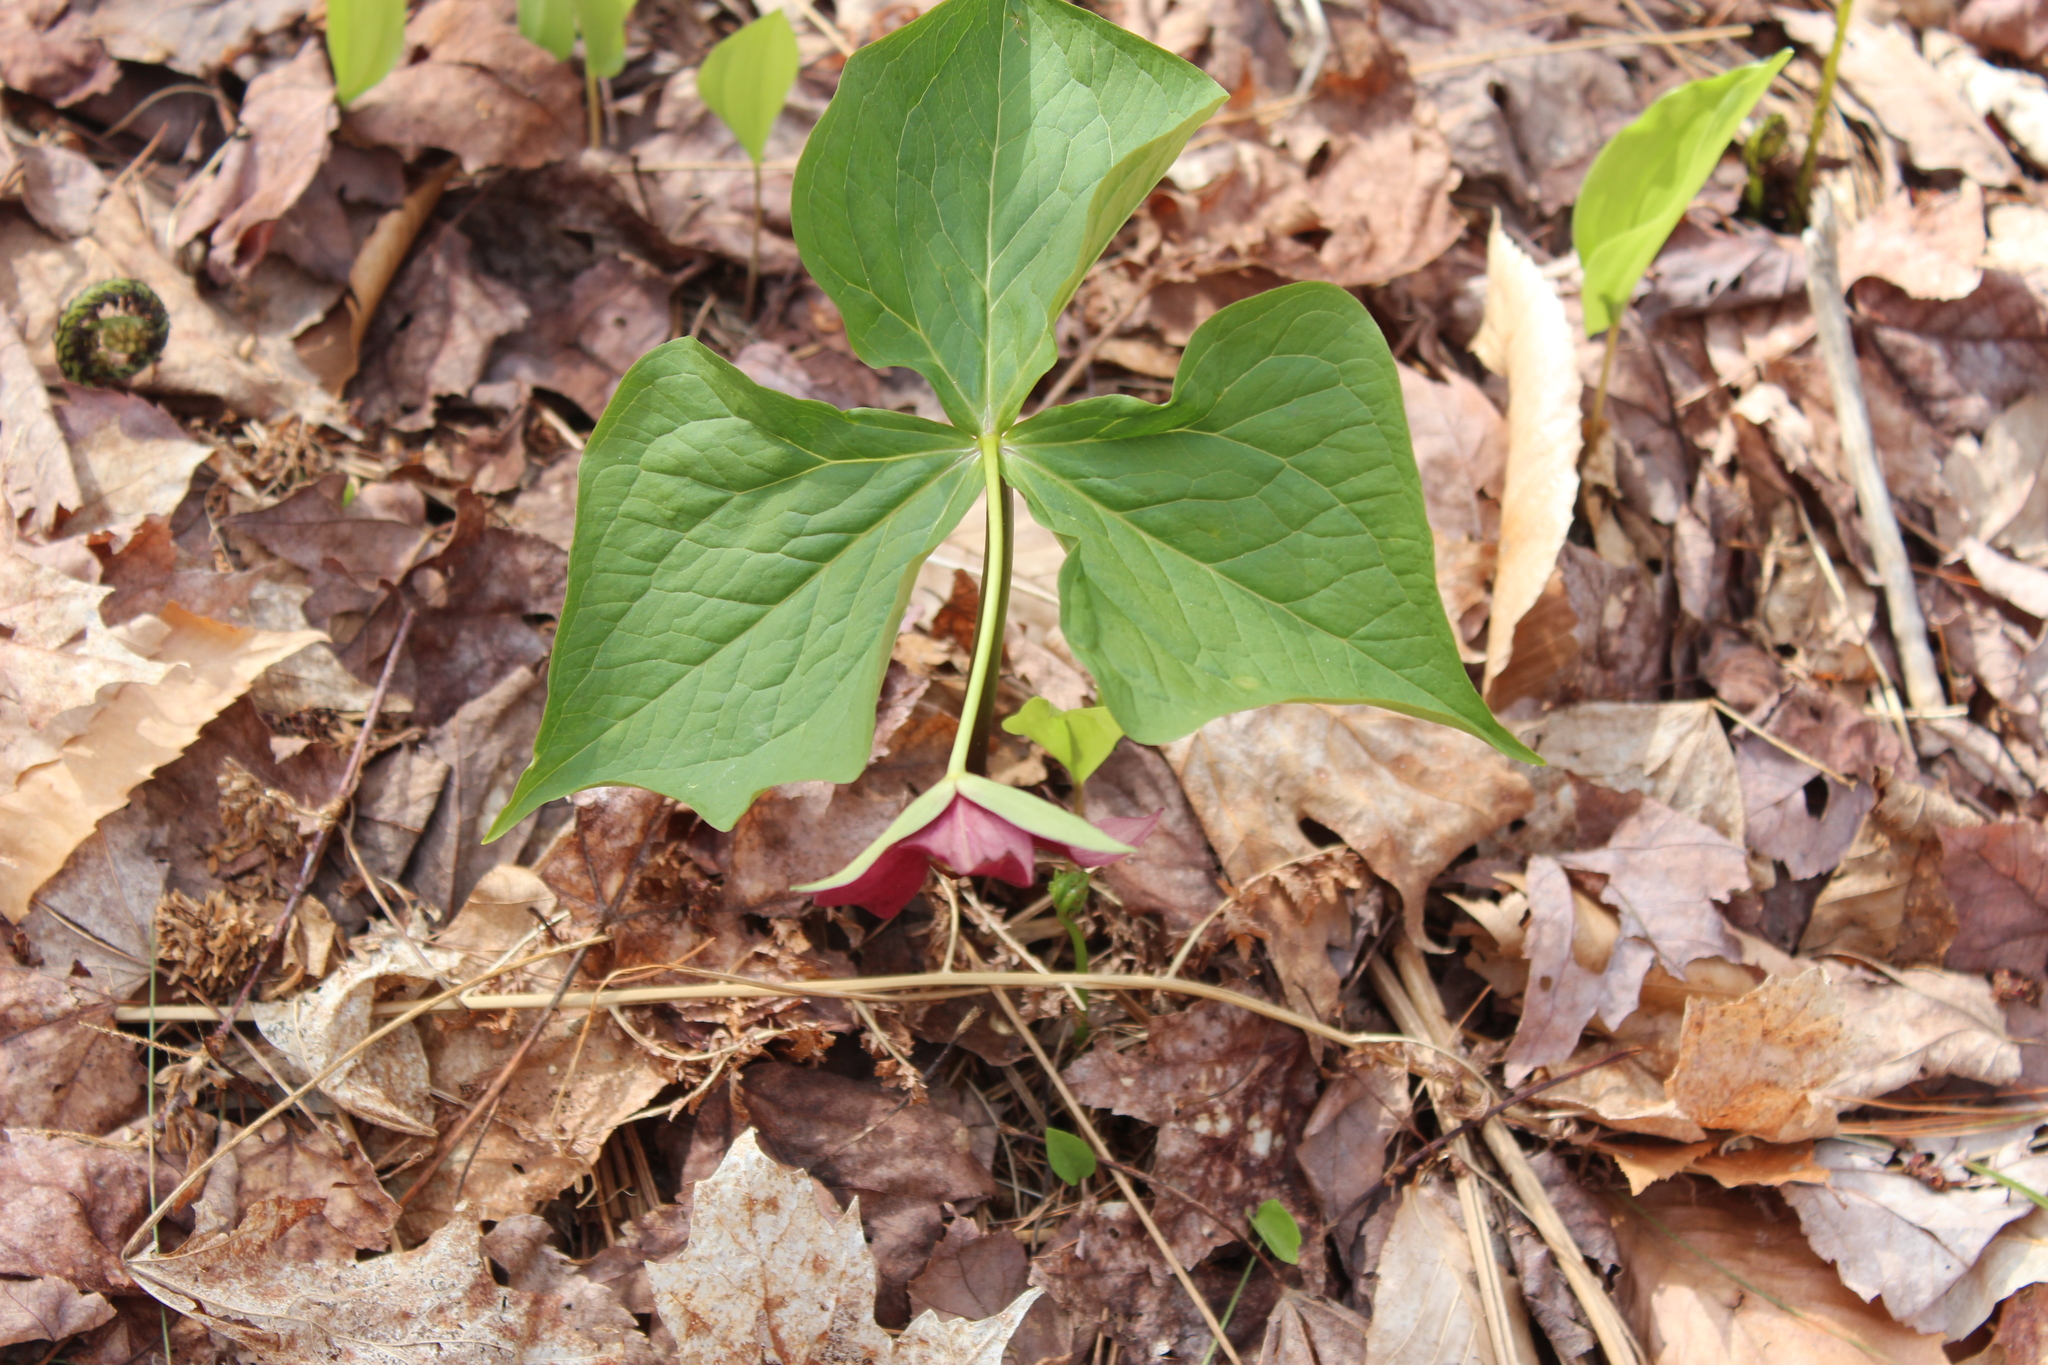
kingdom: Plantae
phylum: Tracheophyta
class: Liliopsida
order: Liliales
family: Melanthiaceae
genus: Trillium
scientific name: Trillium erectum
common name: Purple trillium
